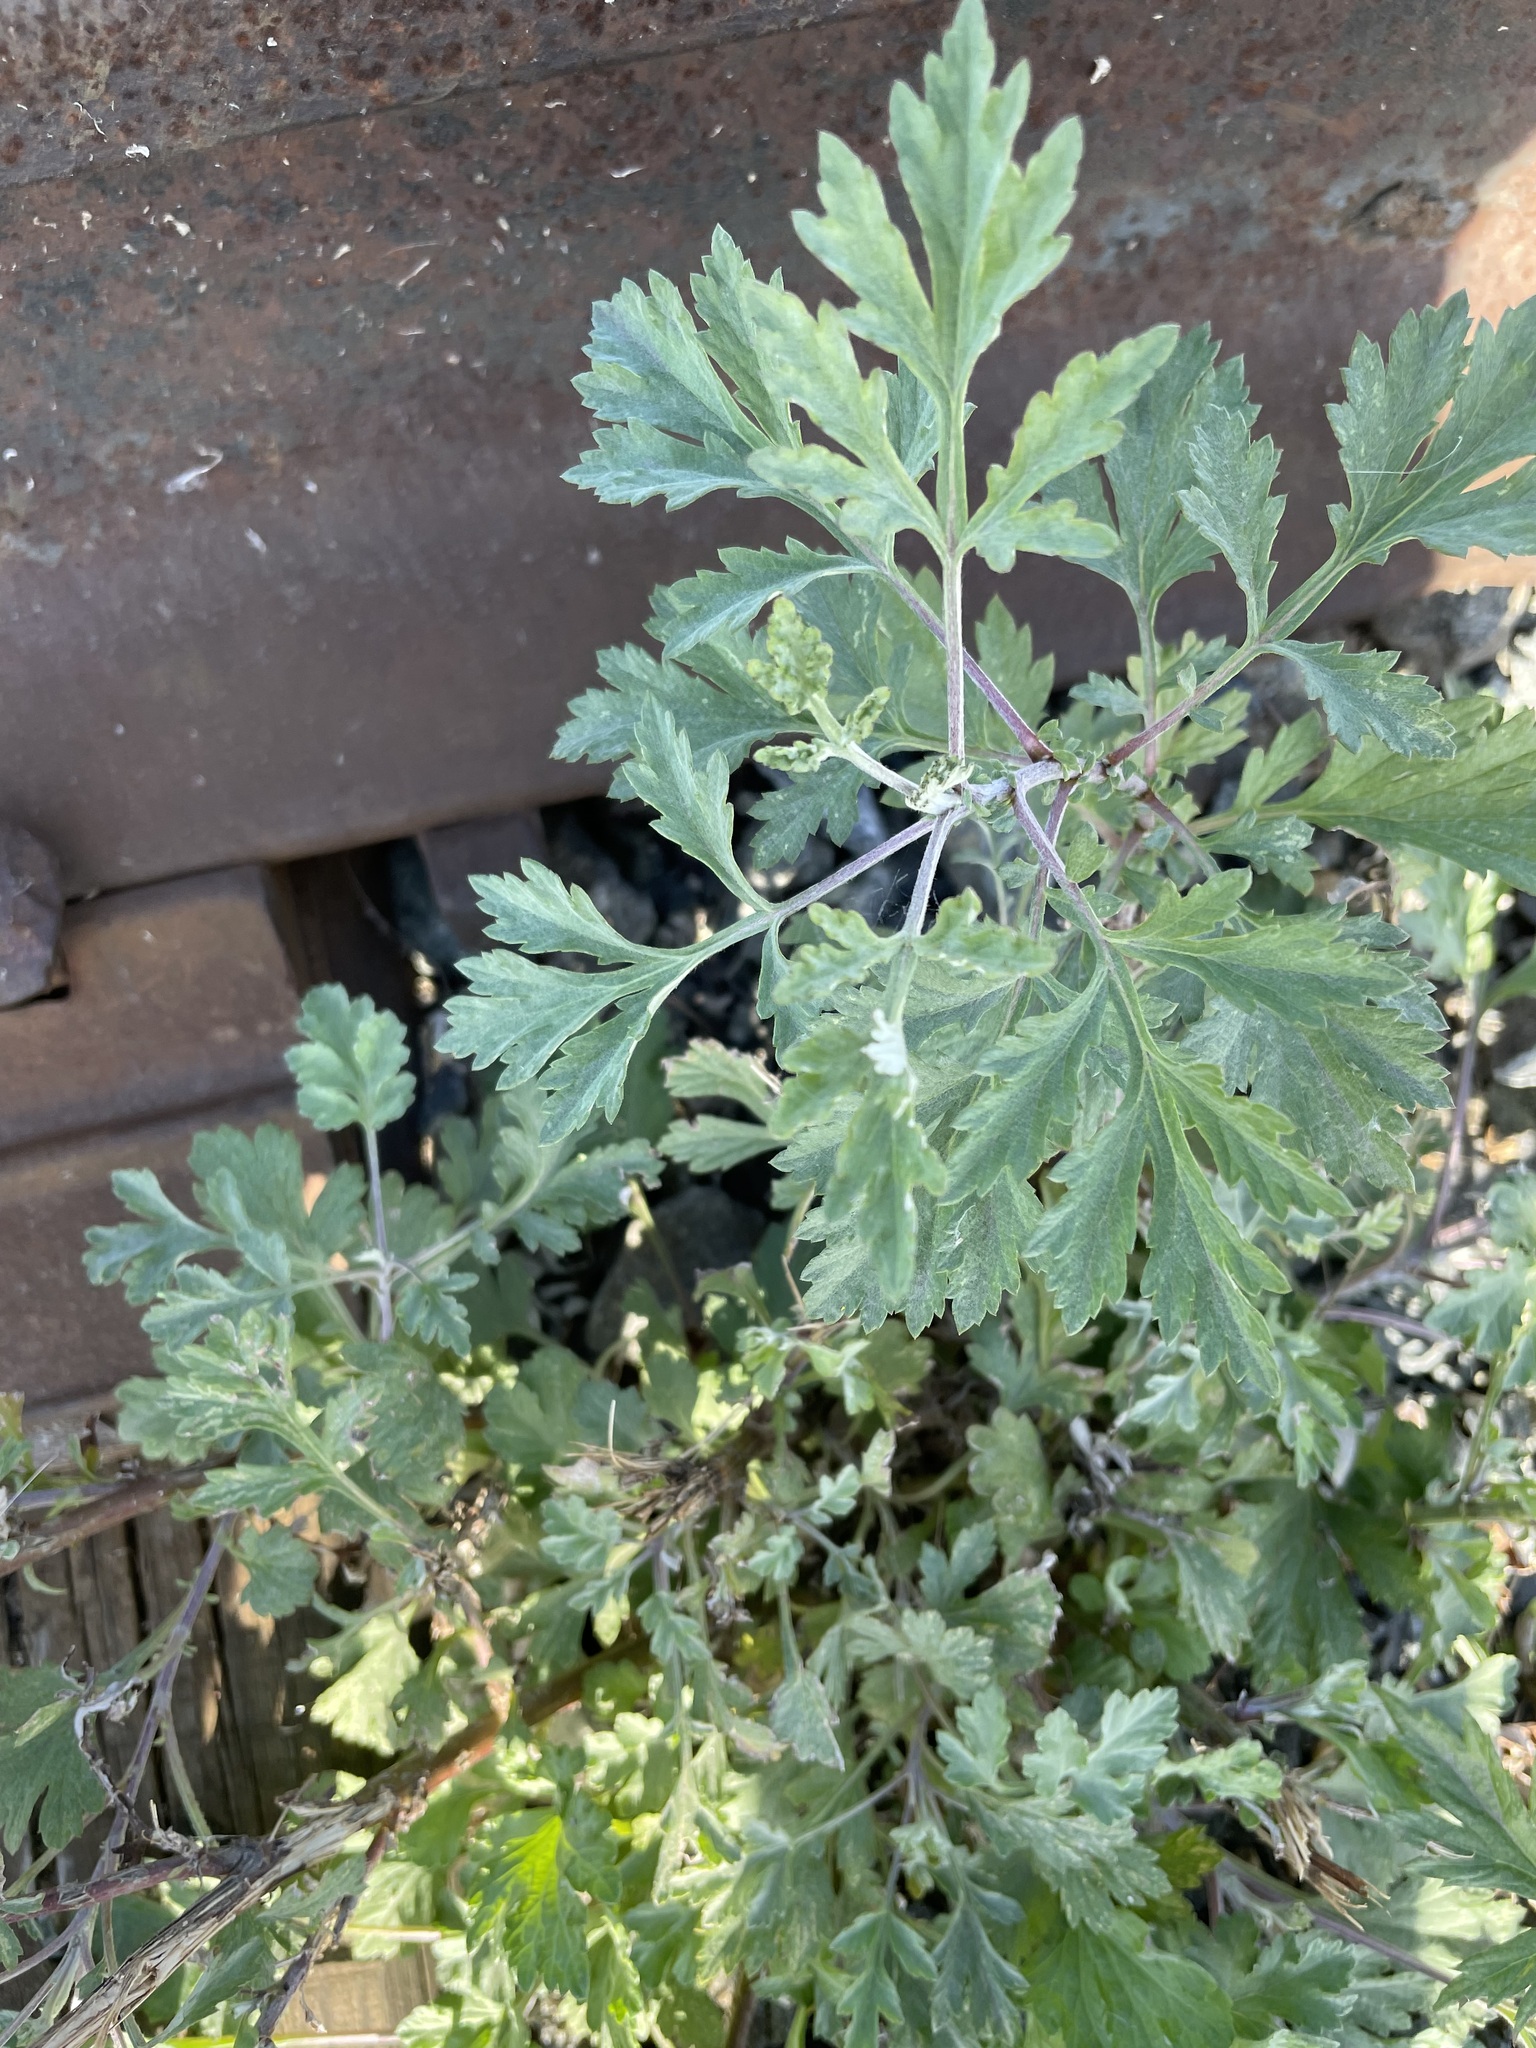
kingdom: Plantae
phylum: Tracheophyta
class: Magnoliopsida
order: Asterales
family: Asteraceae
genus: Artemisia
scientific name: Artemisia vulgaris
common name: Mugwort
